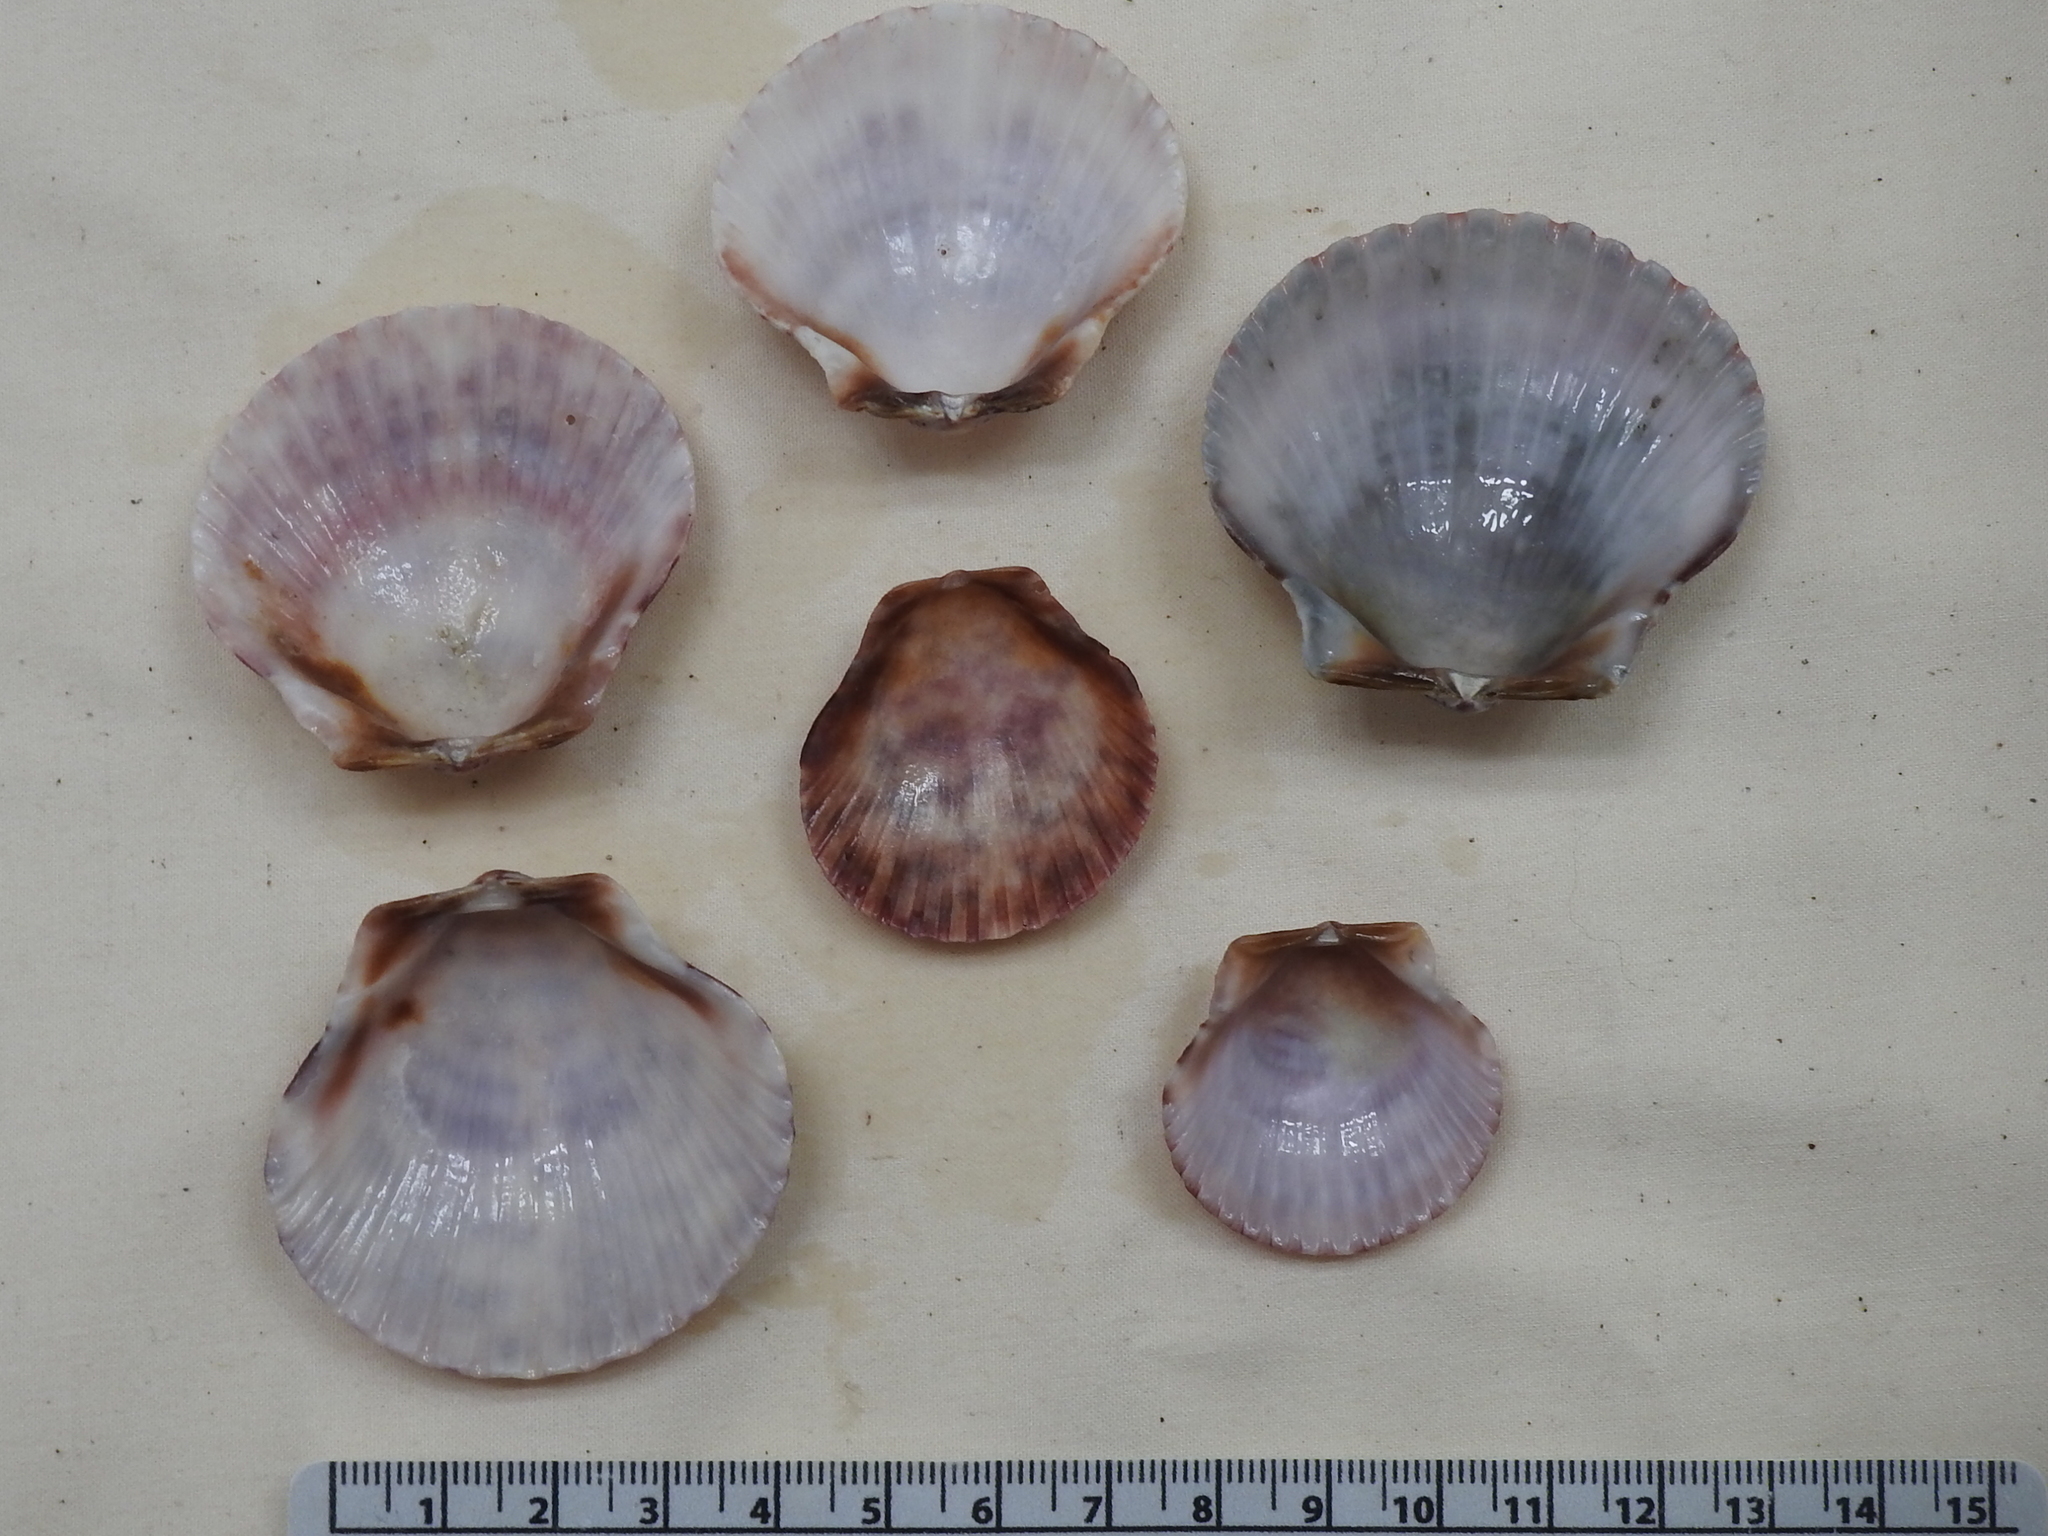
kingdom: Animalia
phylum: Mollusca
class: Bivalvia
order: Pectinida
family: Pectinidae
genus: Argopecten
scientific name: Argopecten gibbus
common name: Atlantic calico scallop
